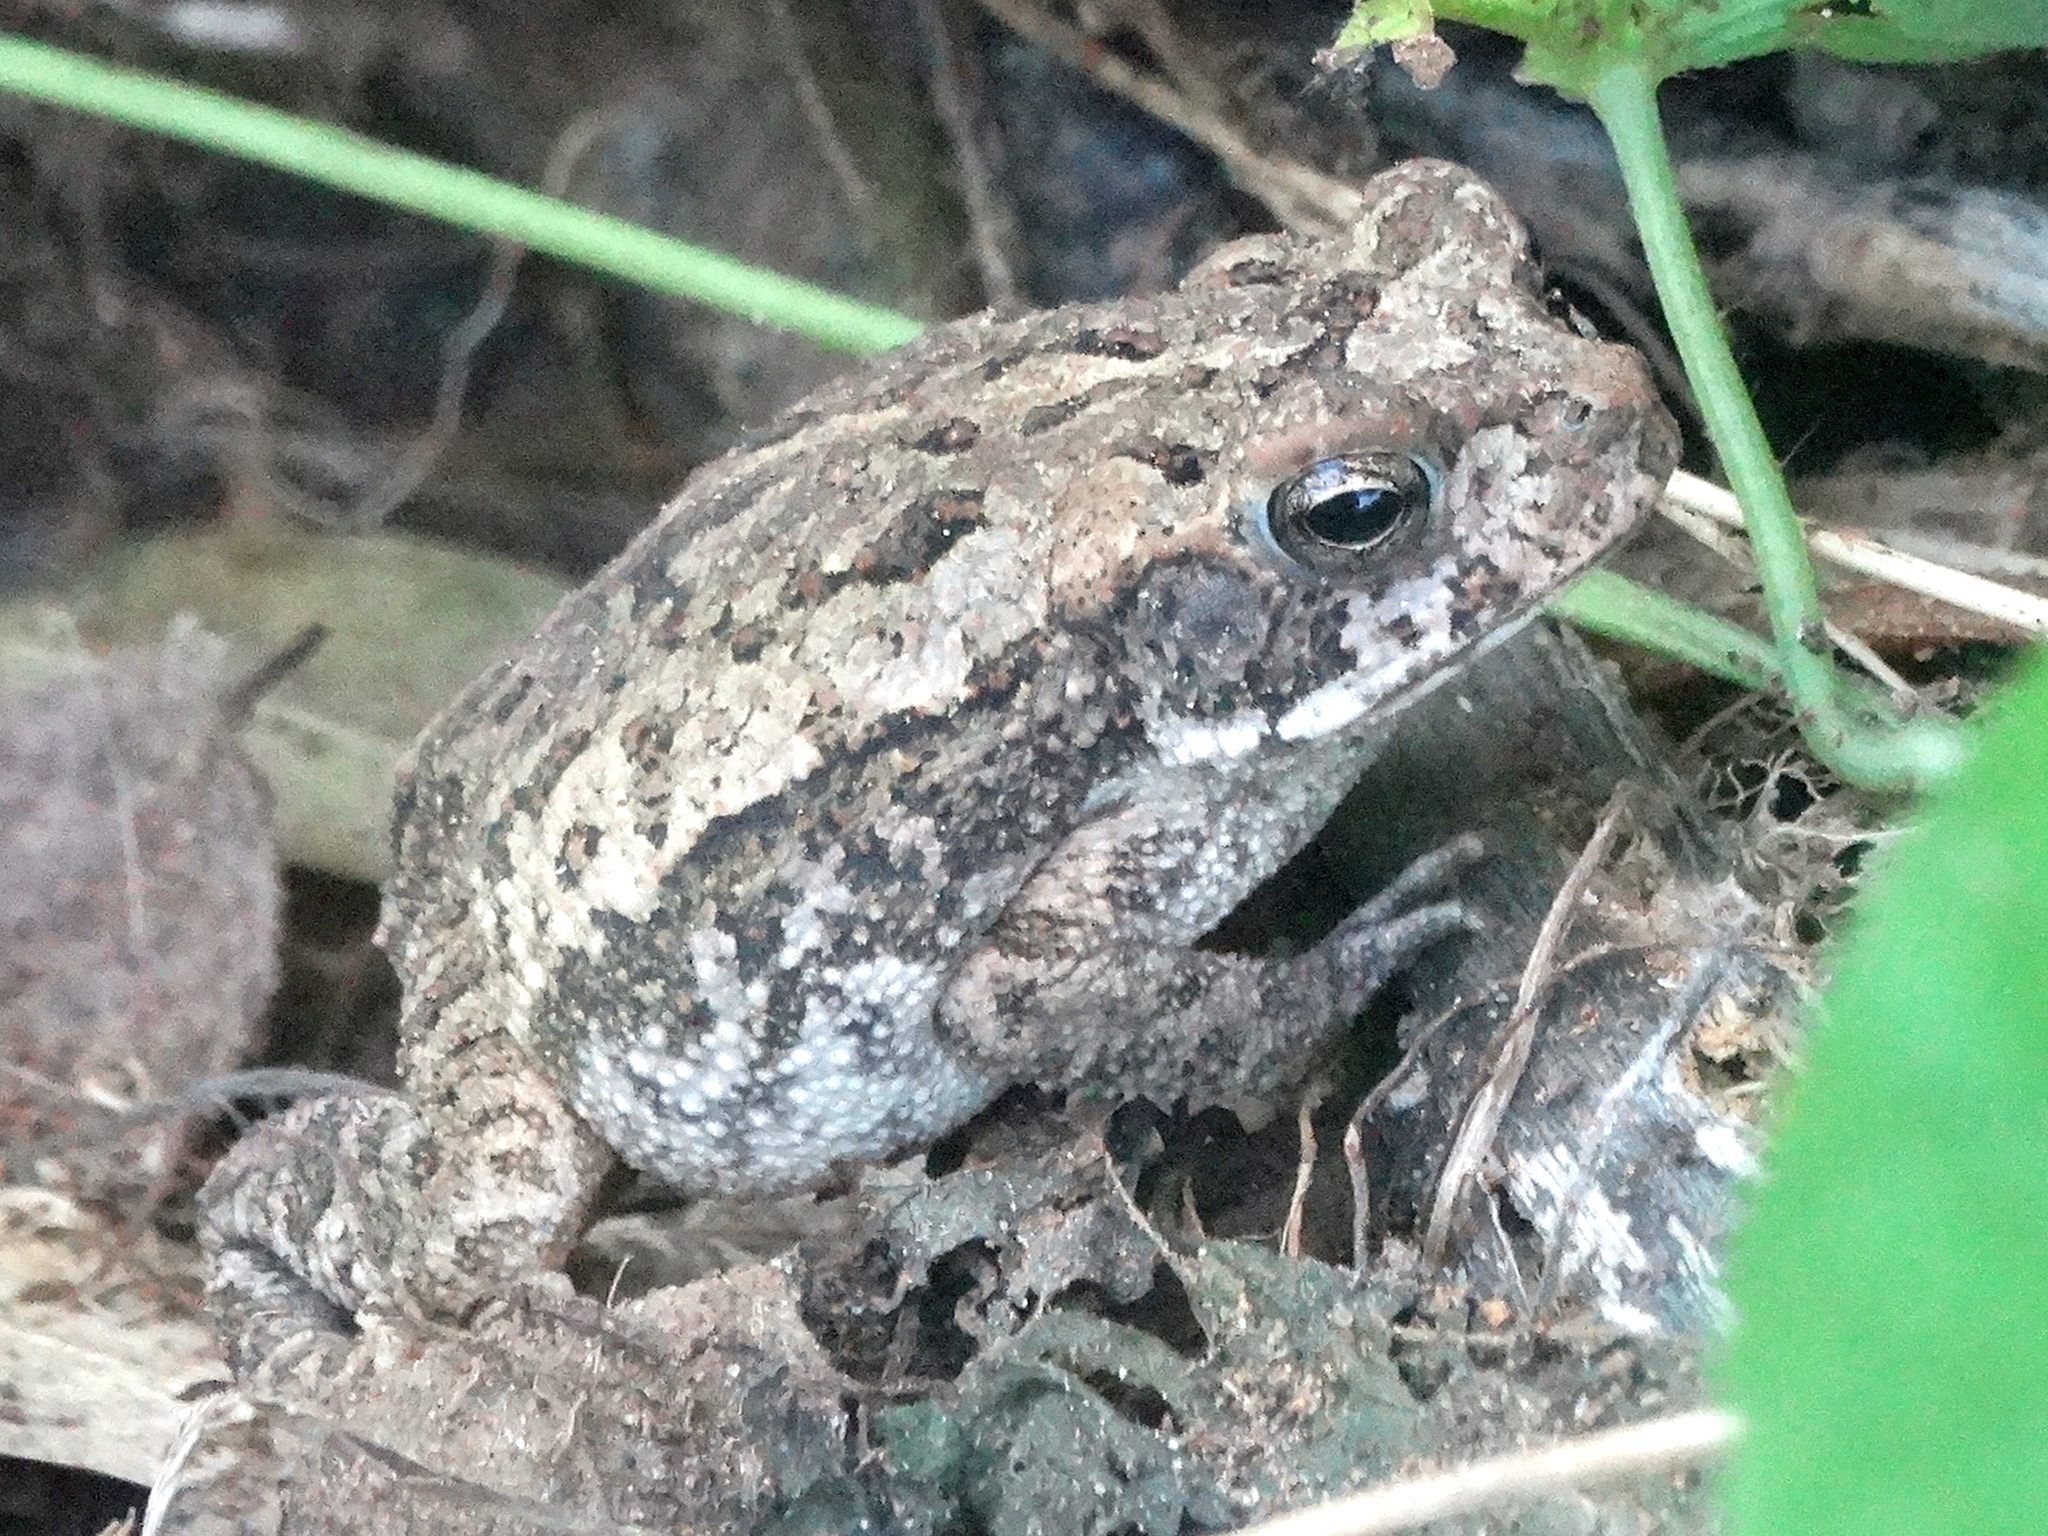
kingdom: Animalia
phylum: Chordata
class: Amphibia
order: Anura
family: Bufonidae
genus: Incilius
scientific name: Incilius mazatlanensis
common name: Sinaloa toad
